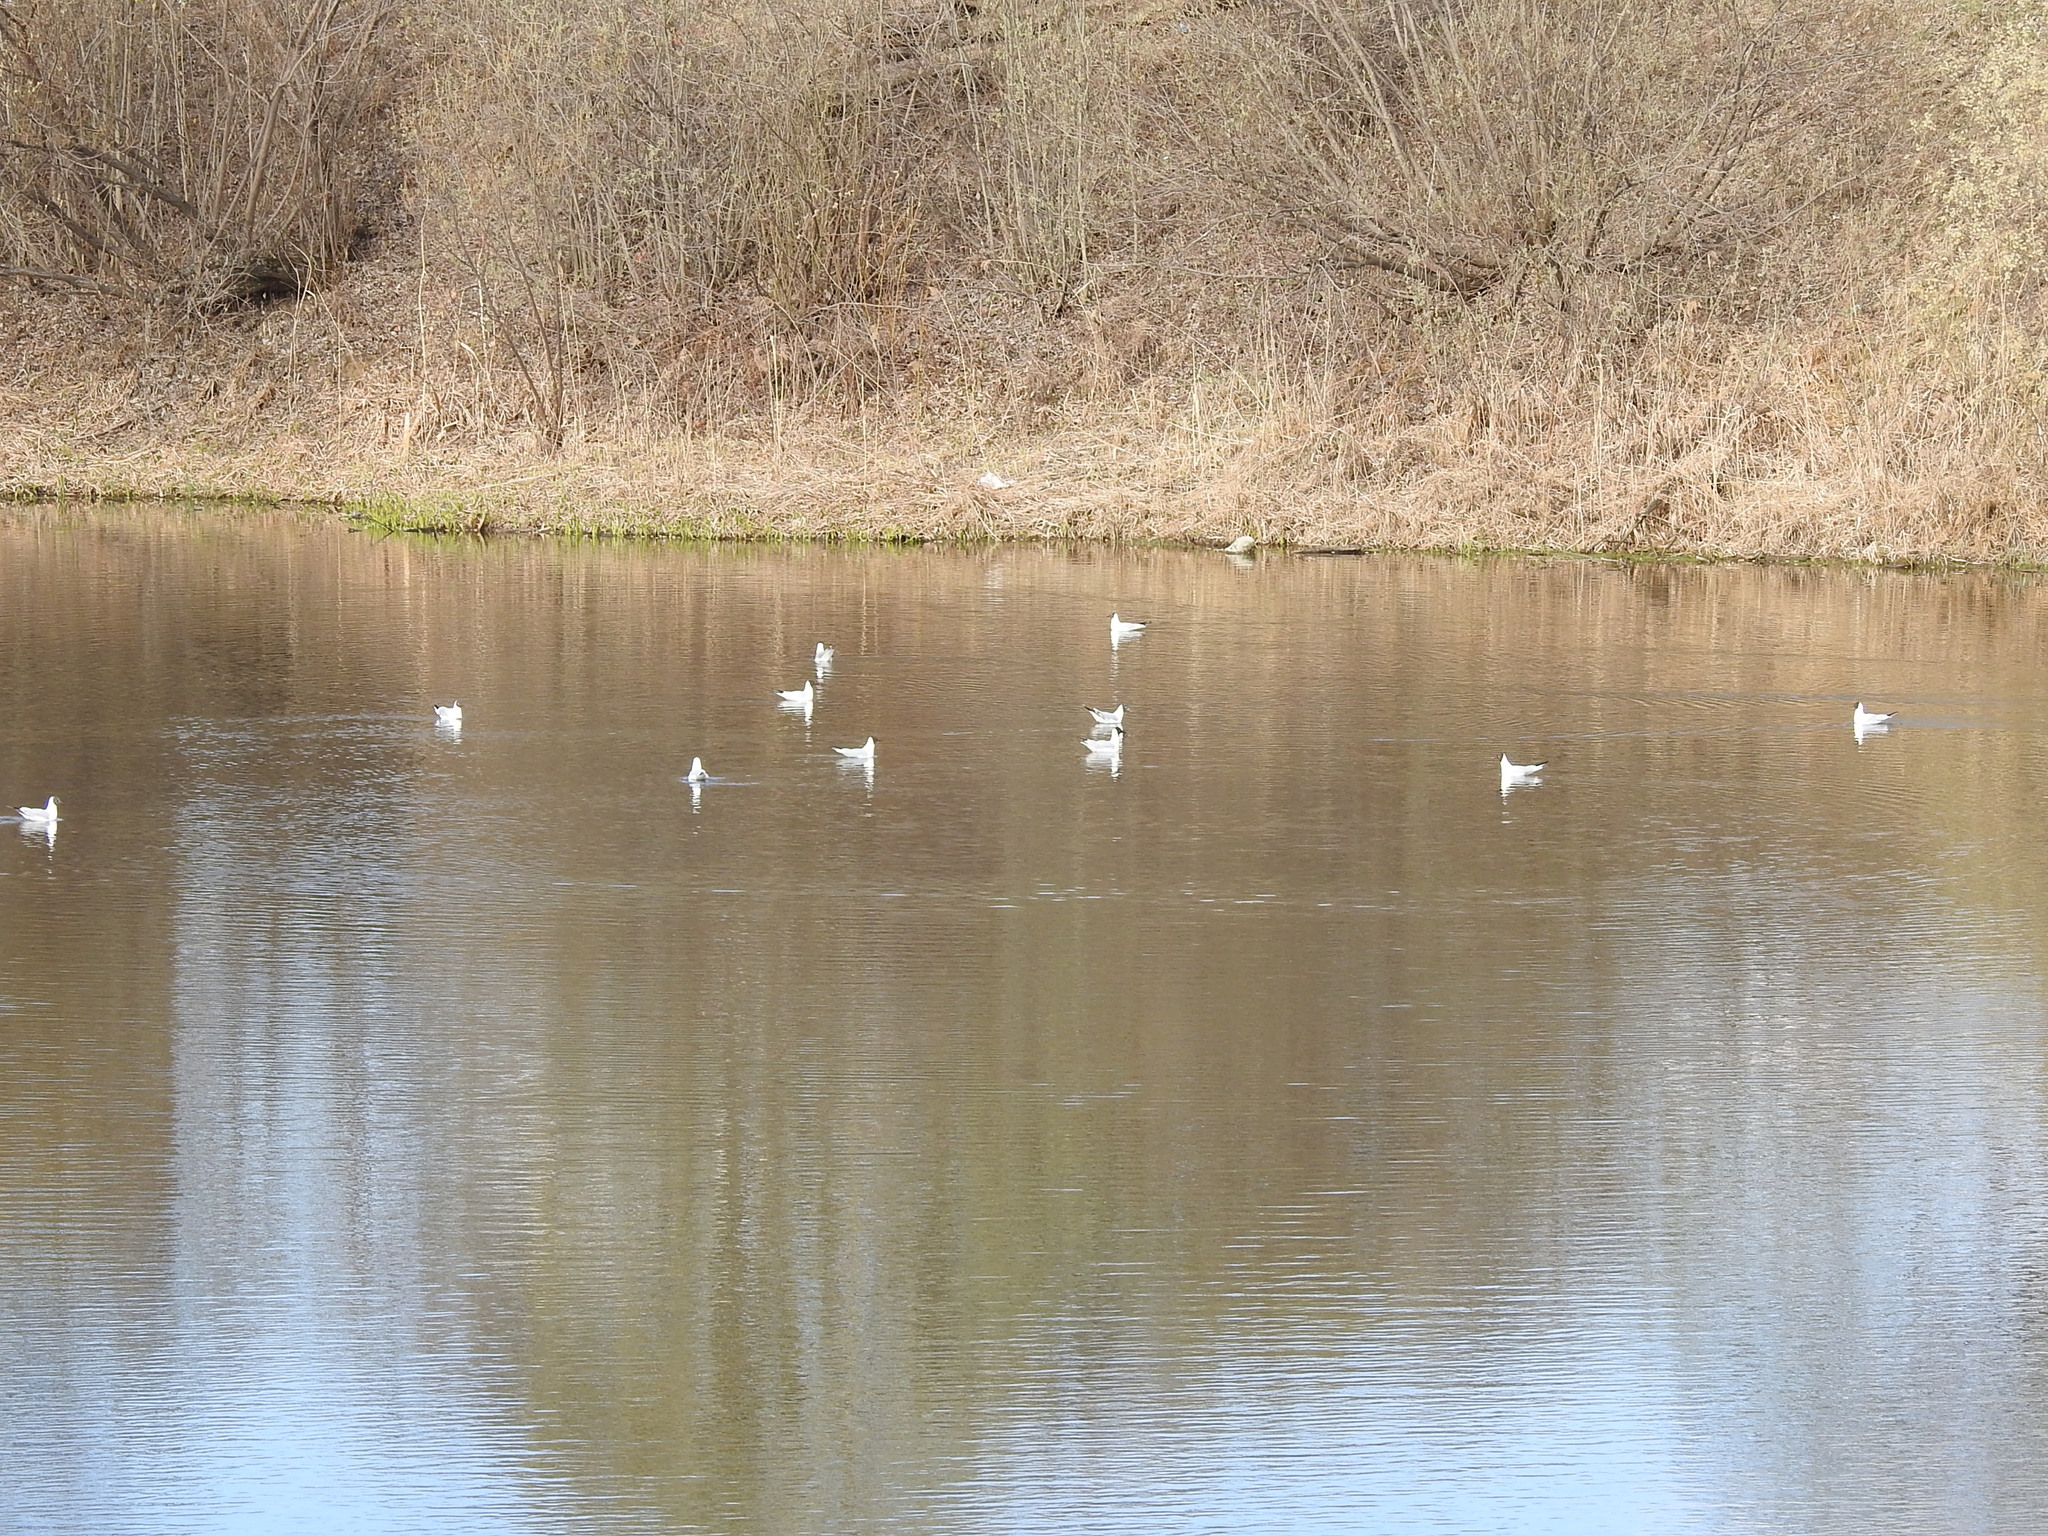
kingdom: Animalia
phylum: Chordata
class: Aves
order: Charadriiformes
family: Laridae
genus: Chroicocephalus
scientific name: Chroicocephalus ridibundus
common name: Black-headed gull
